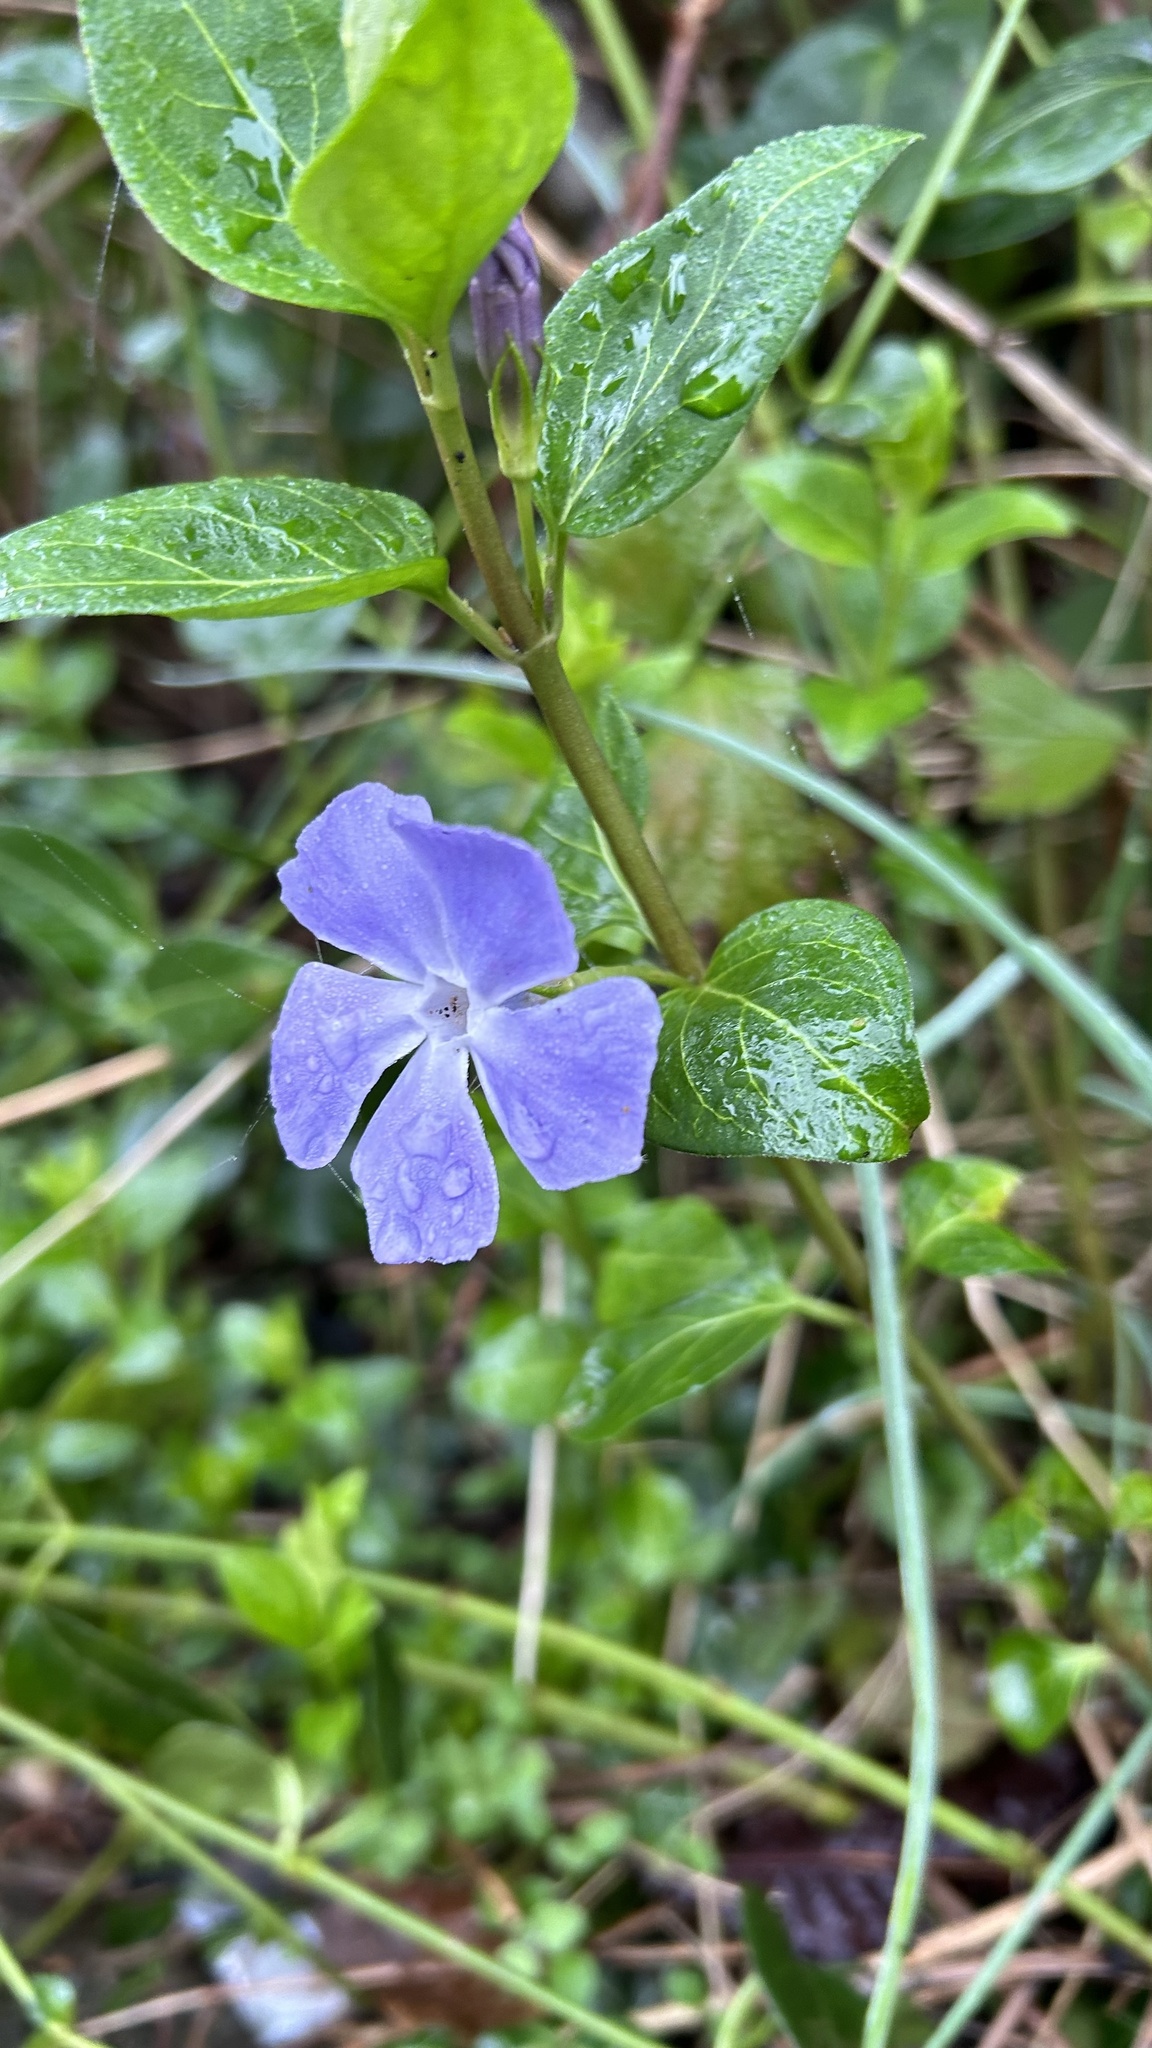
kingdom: Plantae
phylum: Tracheophyta
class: Magnoliopsida
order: Gentianales
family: Apocynaceae
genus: Vinca
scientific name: Vinca major
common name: Greater periwinkle
